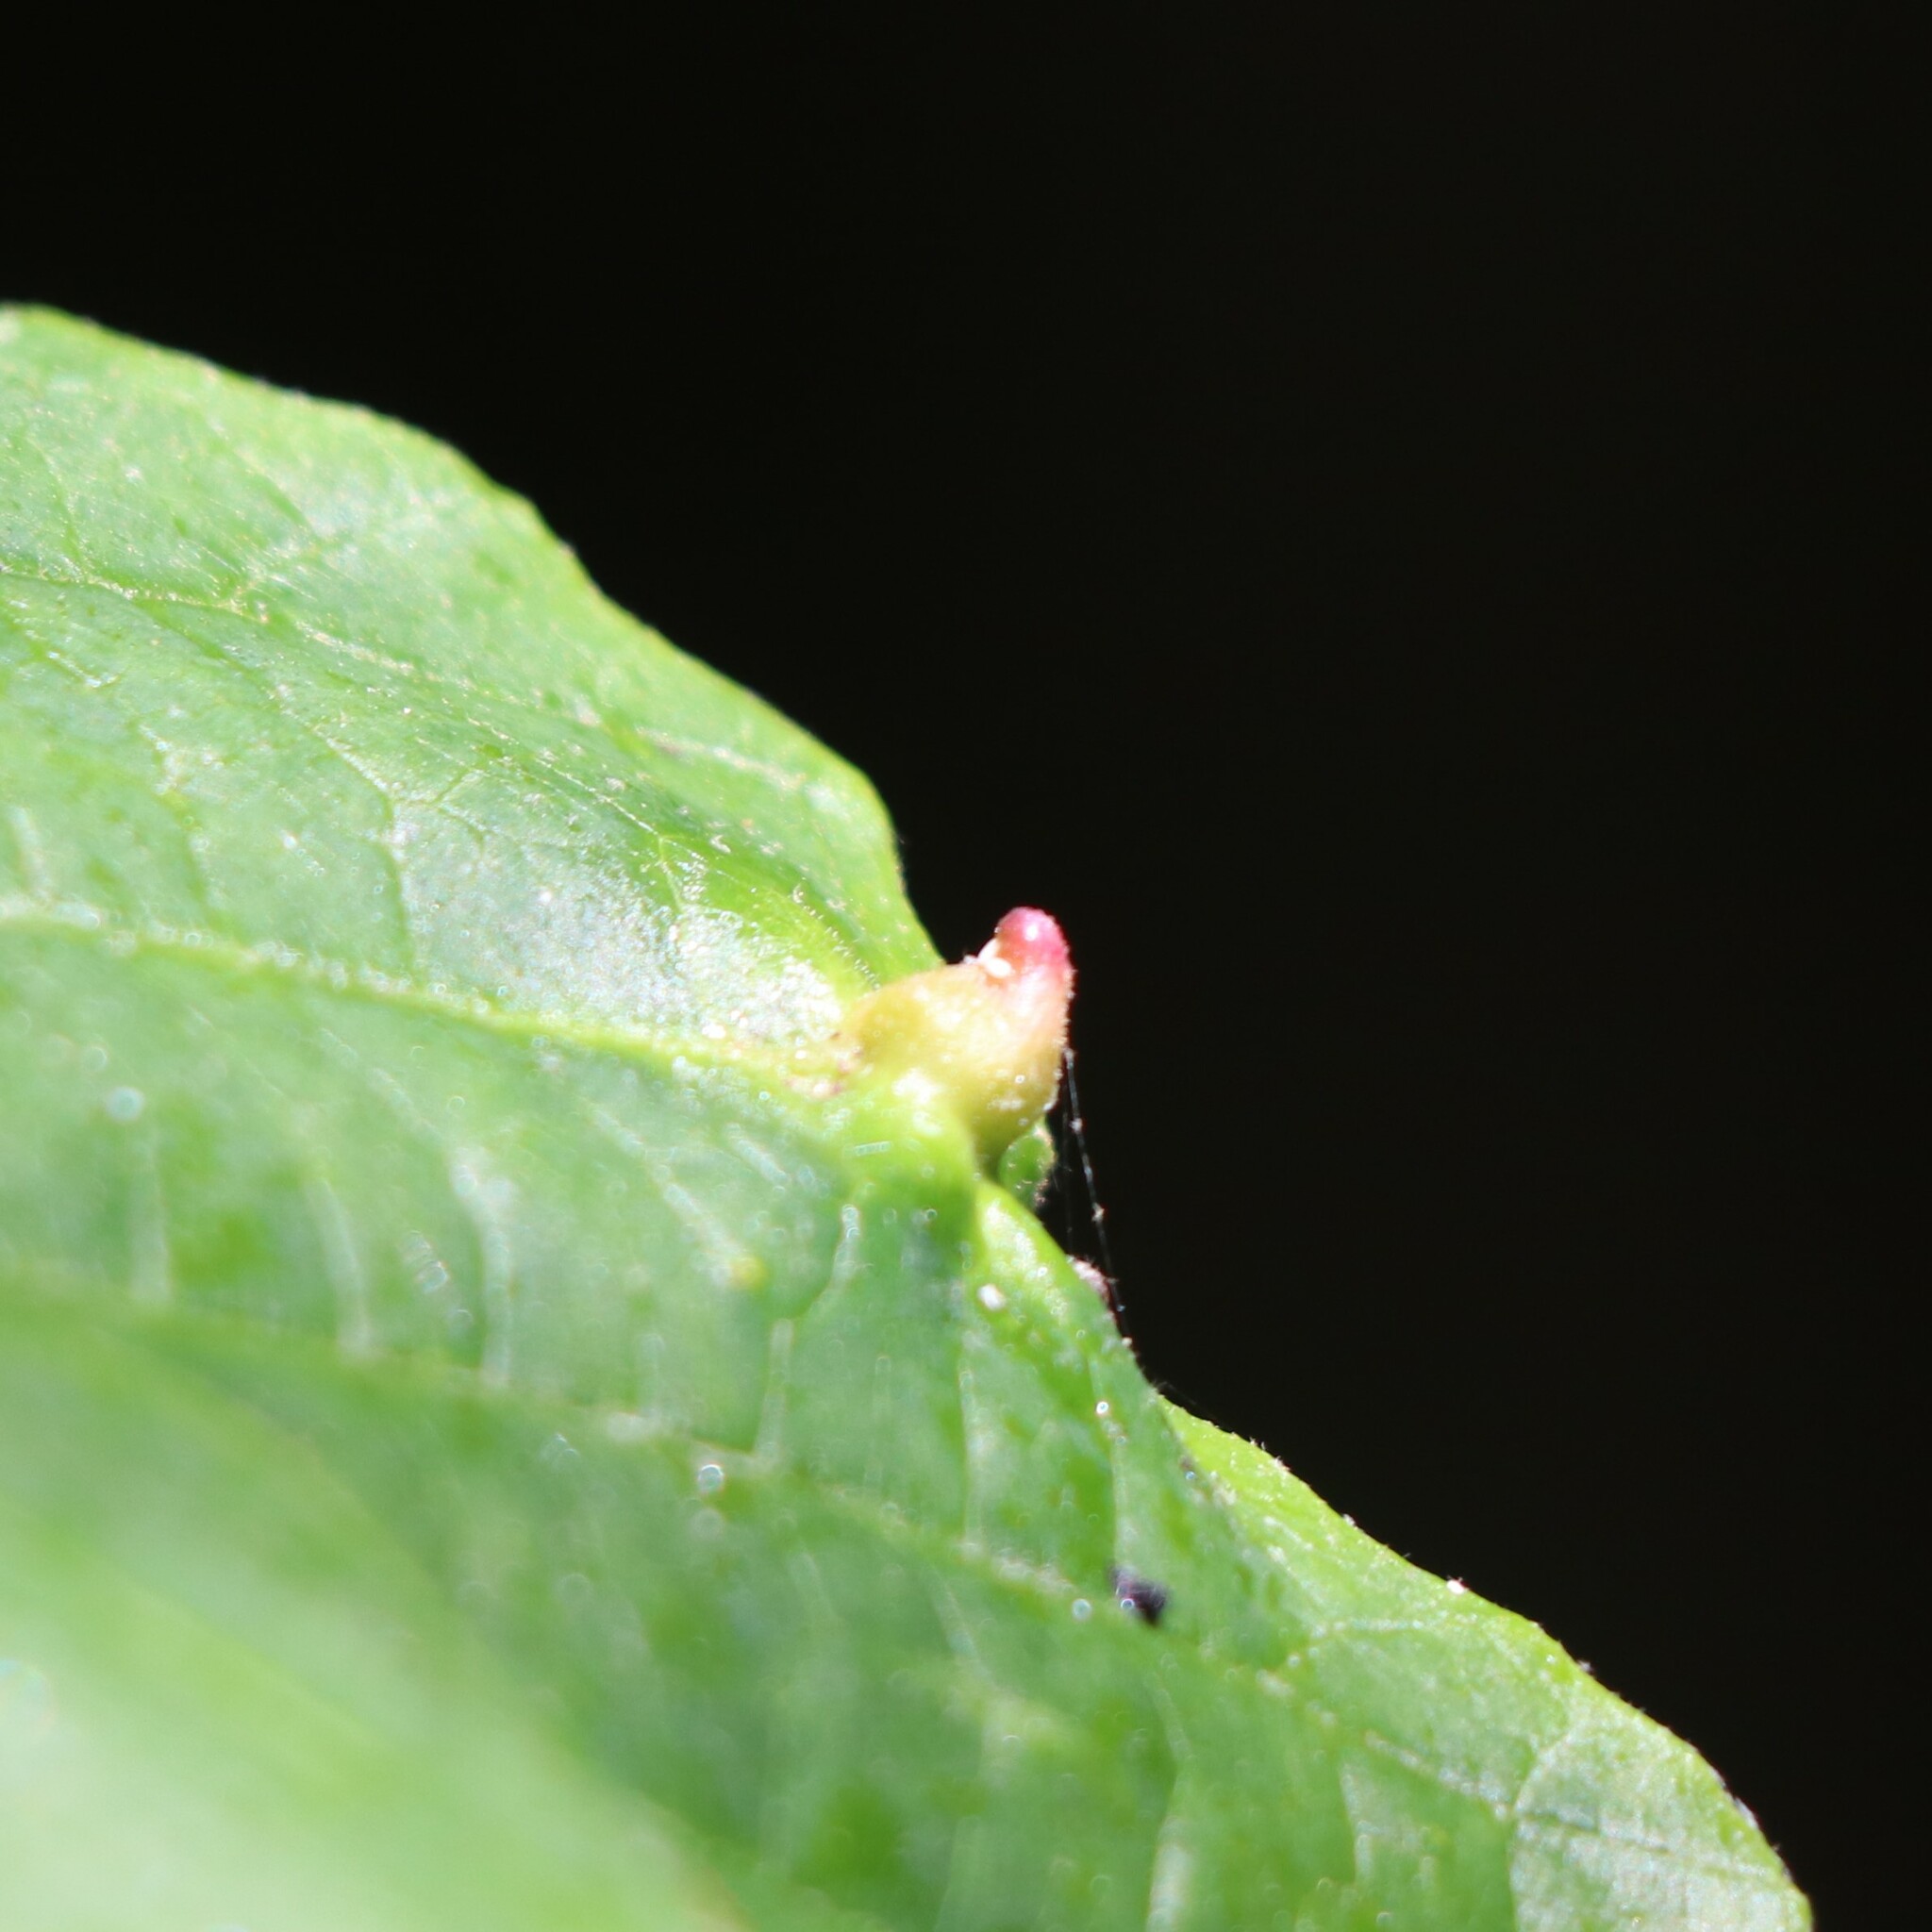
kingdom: Animalia
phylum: Arthropoda
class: Insecta
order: Hemiptera
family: Aphididae
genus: Hormaphis
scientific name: Hormaphis hamamelidis
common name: Witch-hazel cone gall aphid
